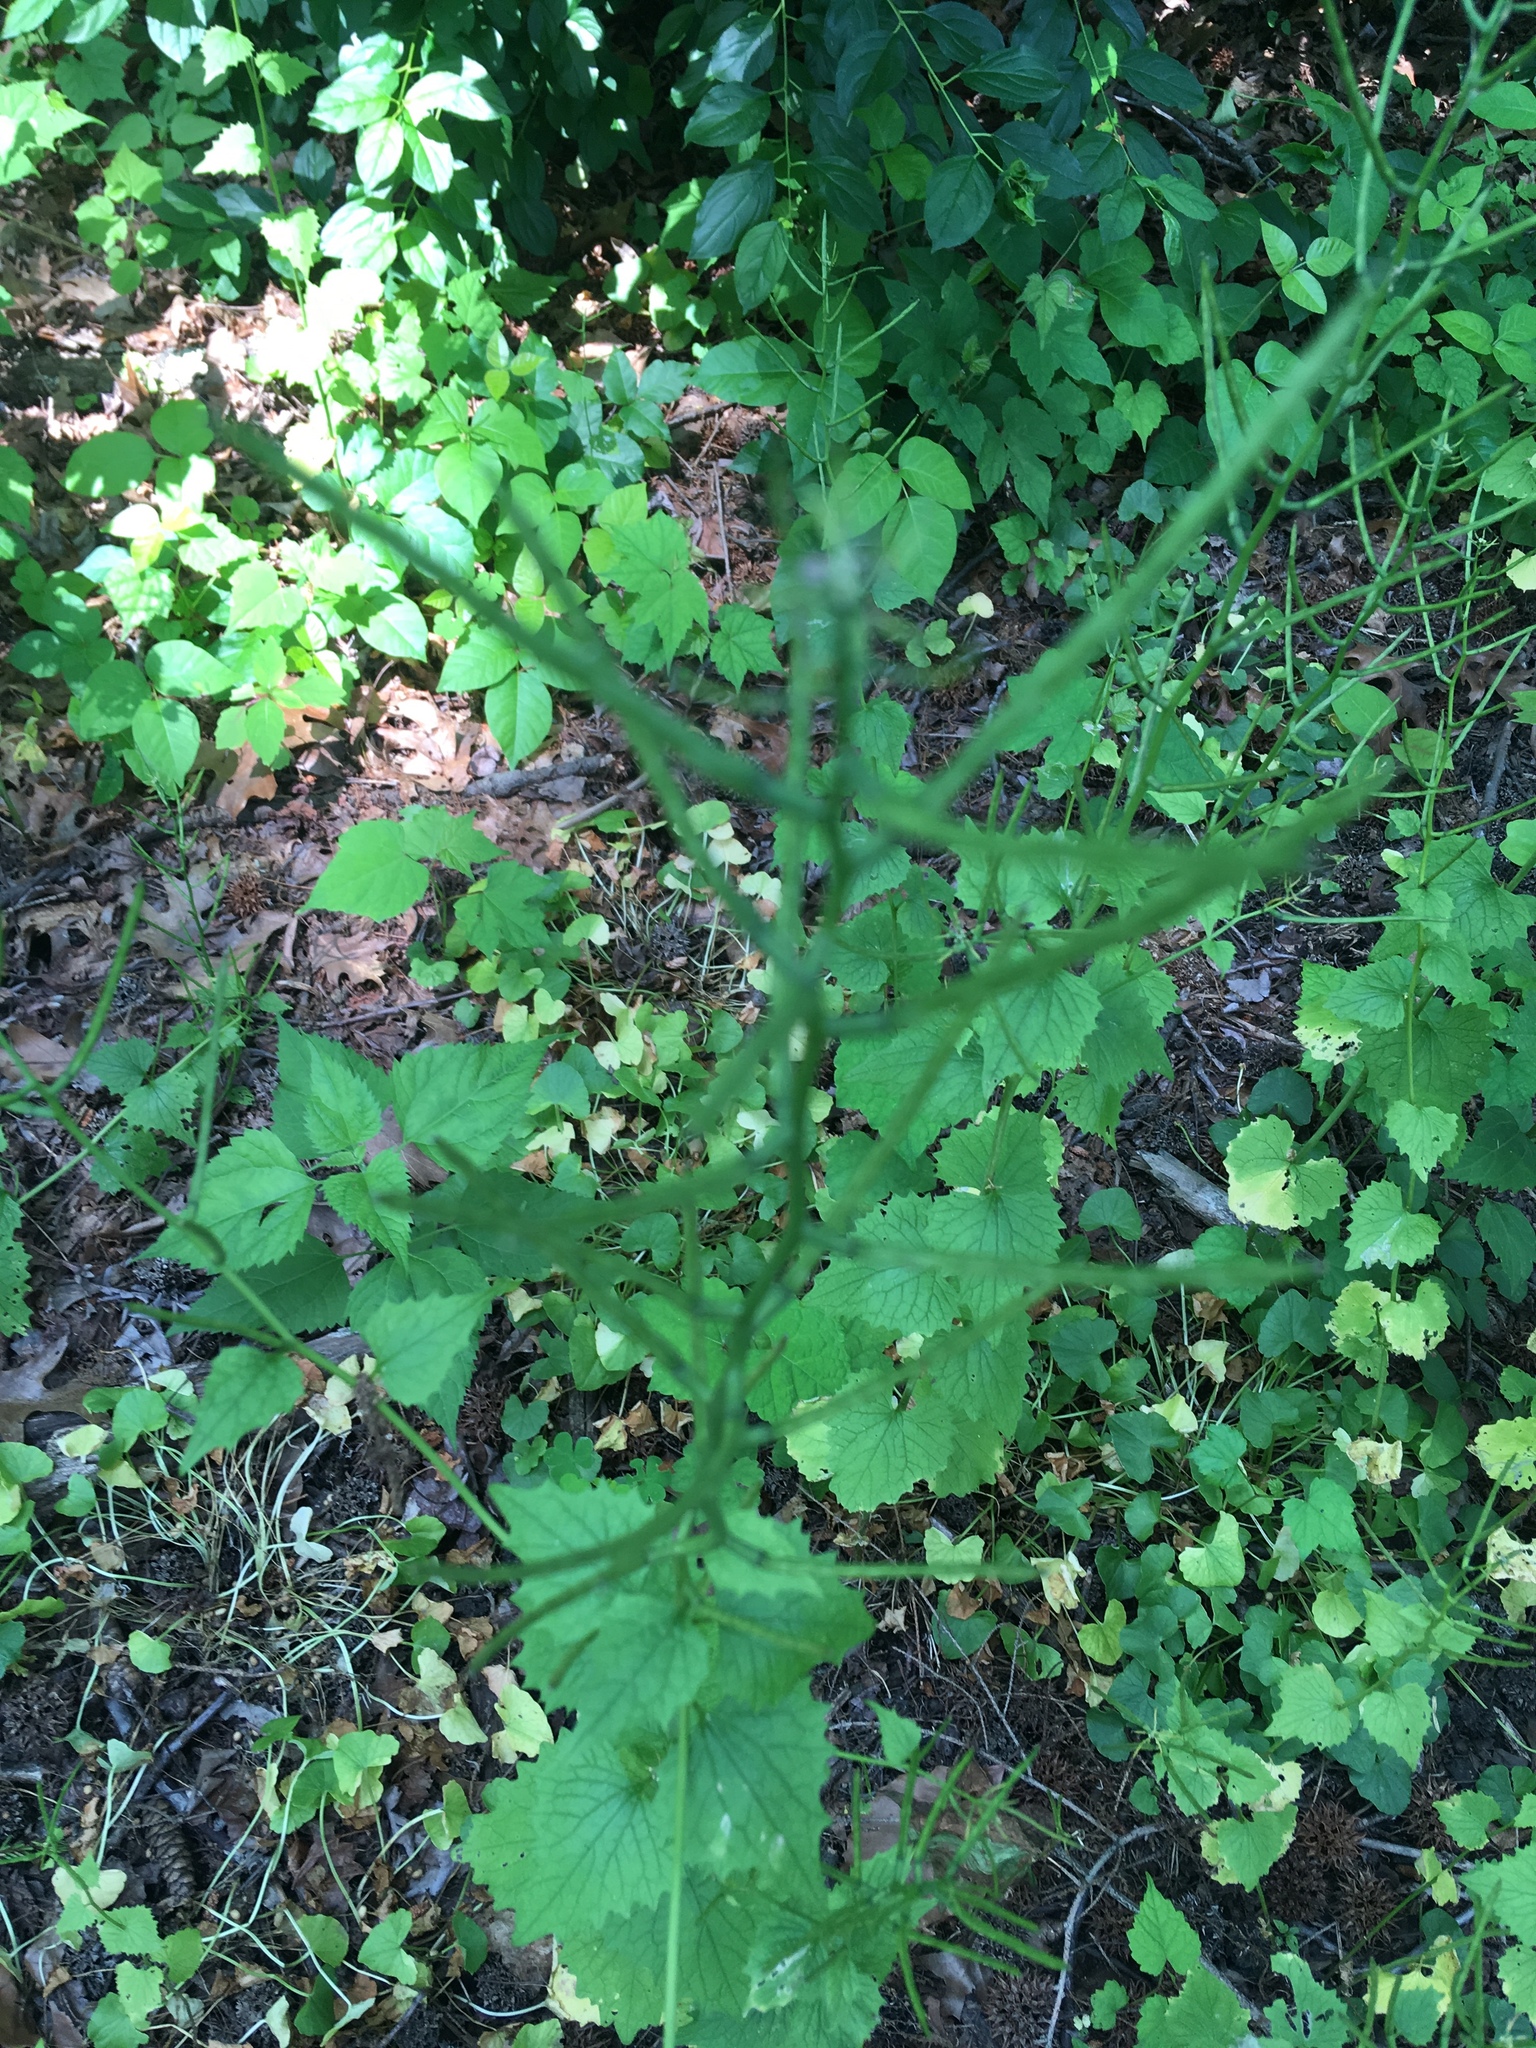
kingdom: Plantae
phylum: Tracheophyta
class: Magnoliopsida
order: Brassicales
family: Brassicaceae
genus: Alliaria
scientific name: Alliaria petiolata
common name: Garlic mustard
